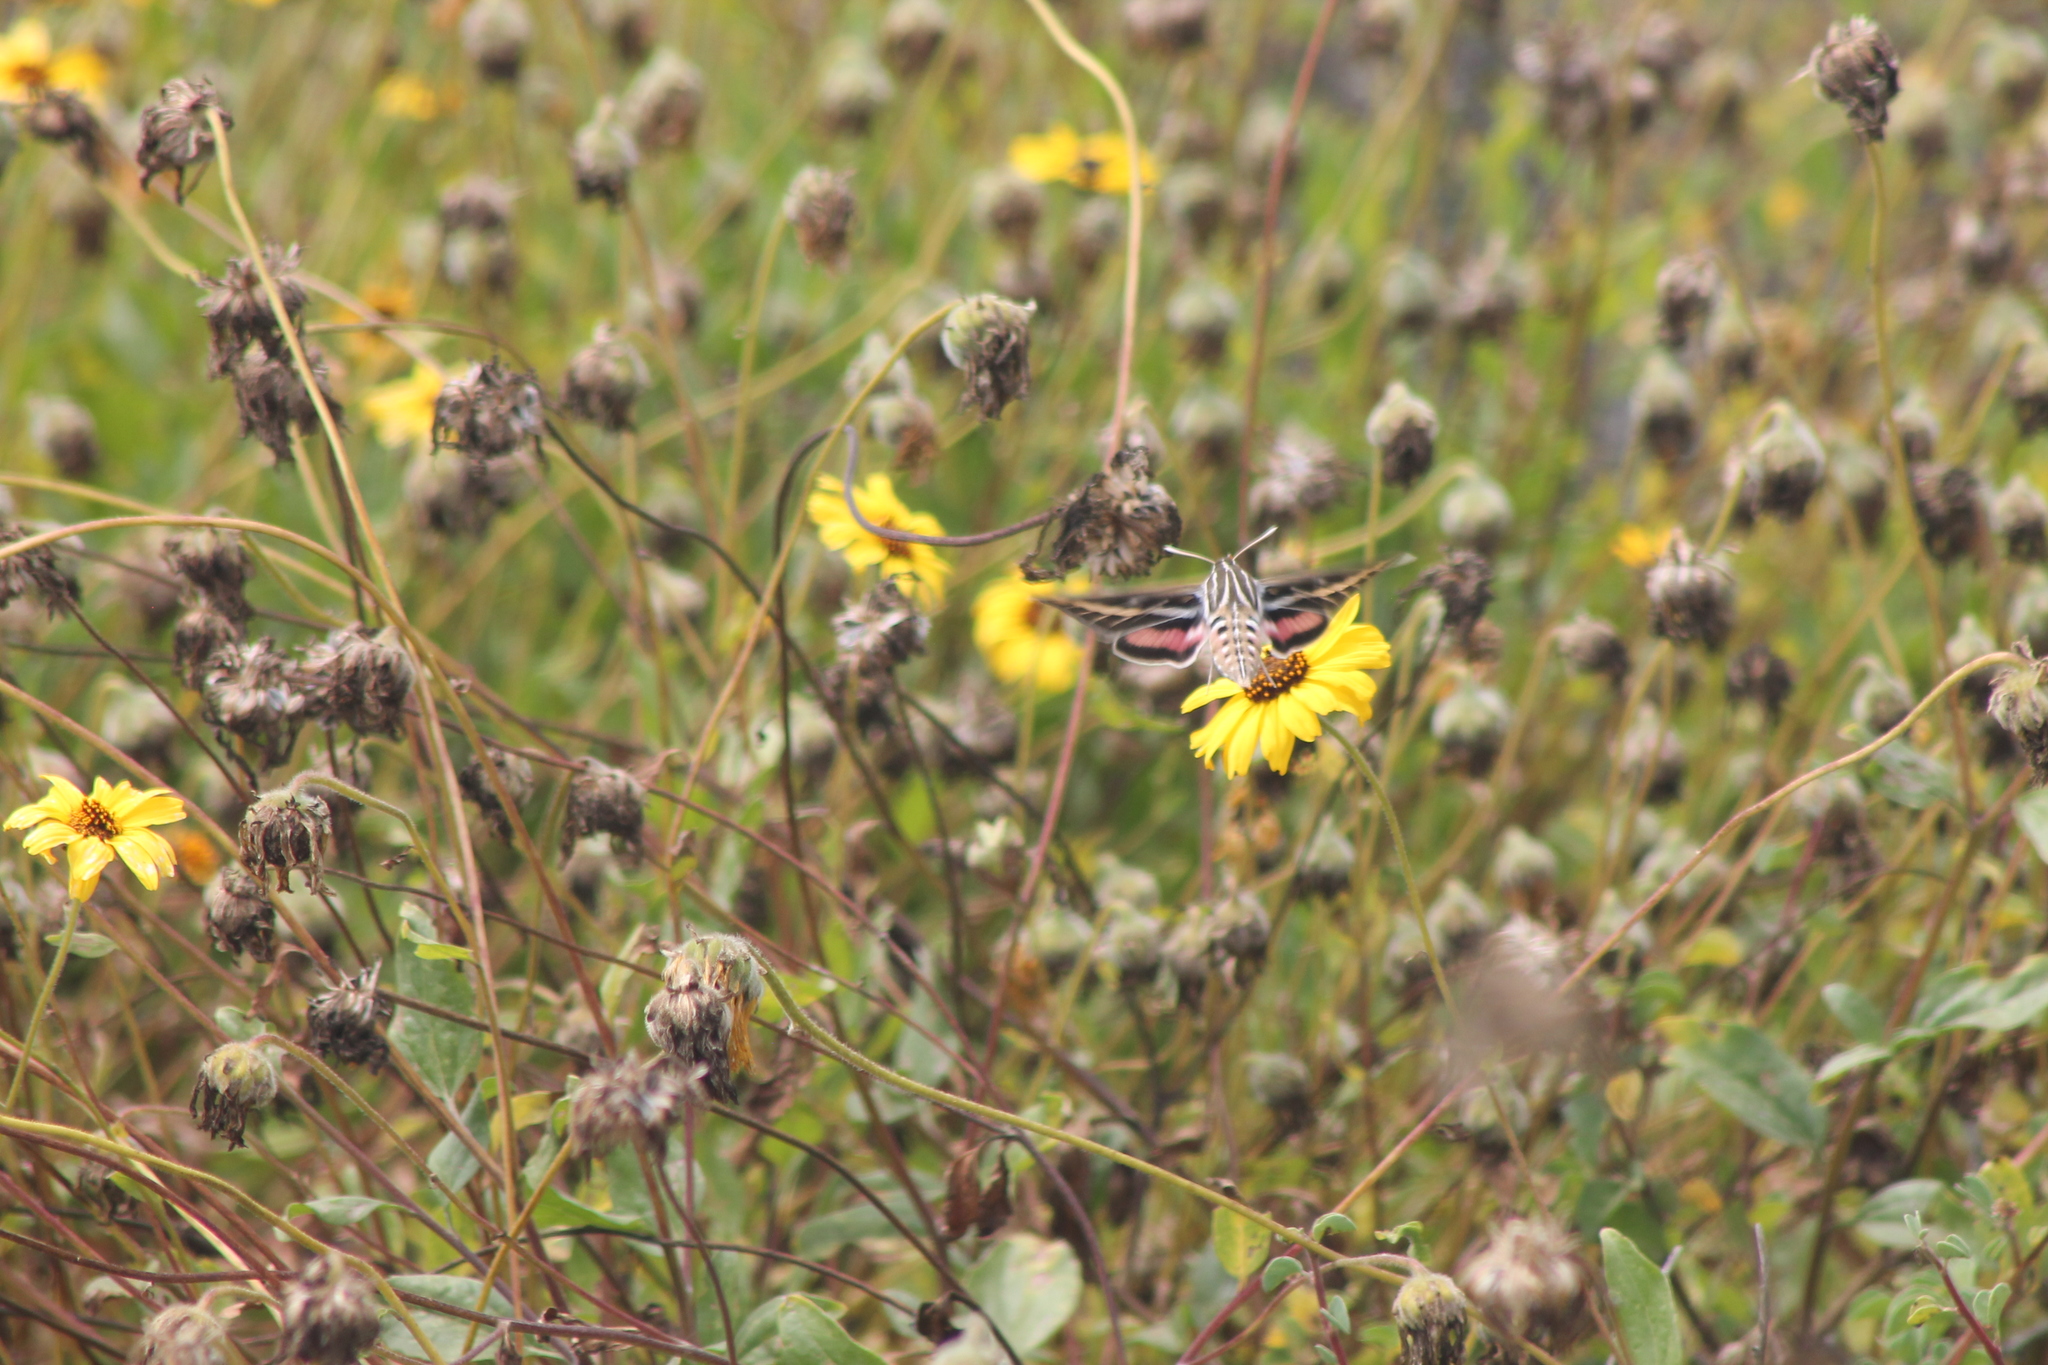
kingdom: Animalia
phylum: Arthropoda
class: Insecta
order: Lepidoptera
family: Sphingidae
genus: Hyles
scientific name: Hyles lineata
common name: White-lined sphinx
